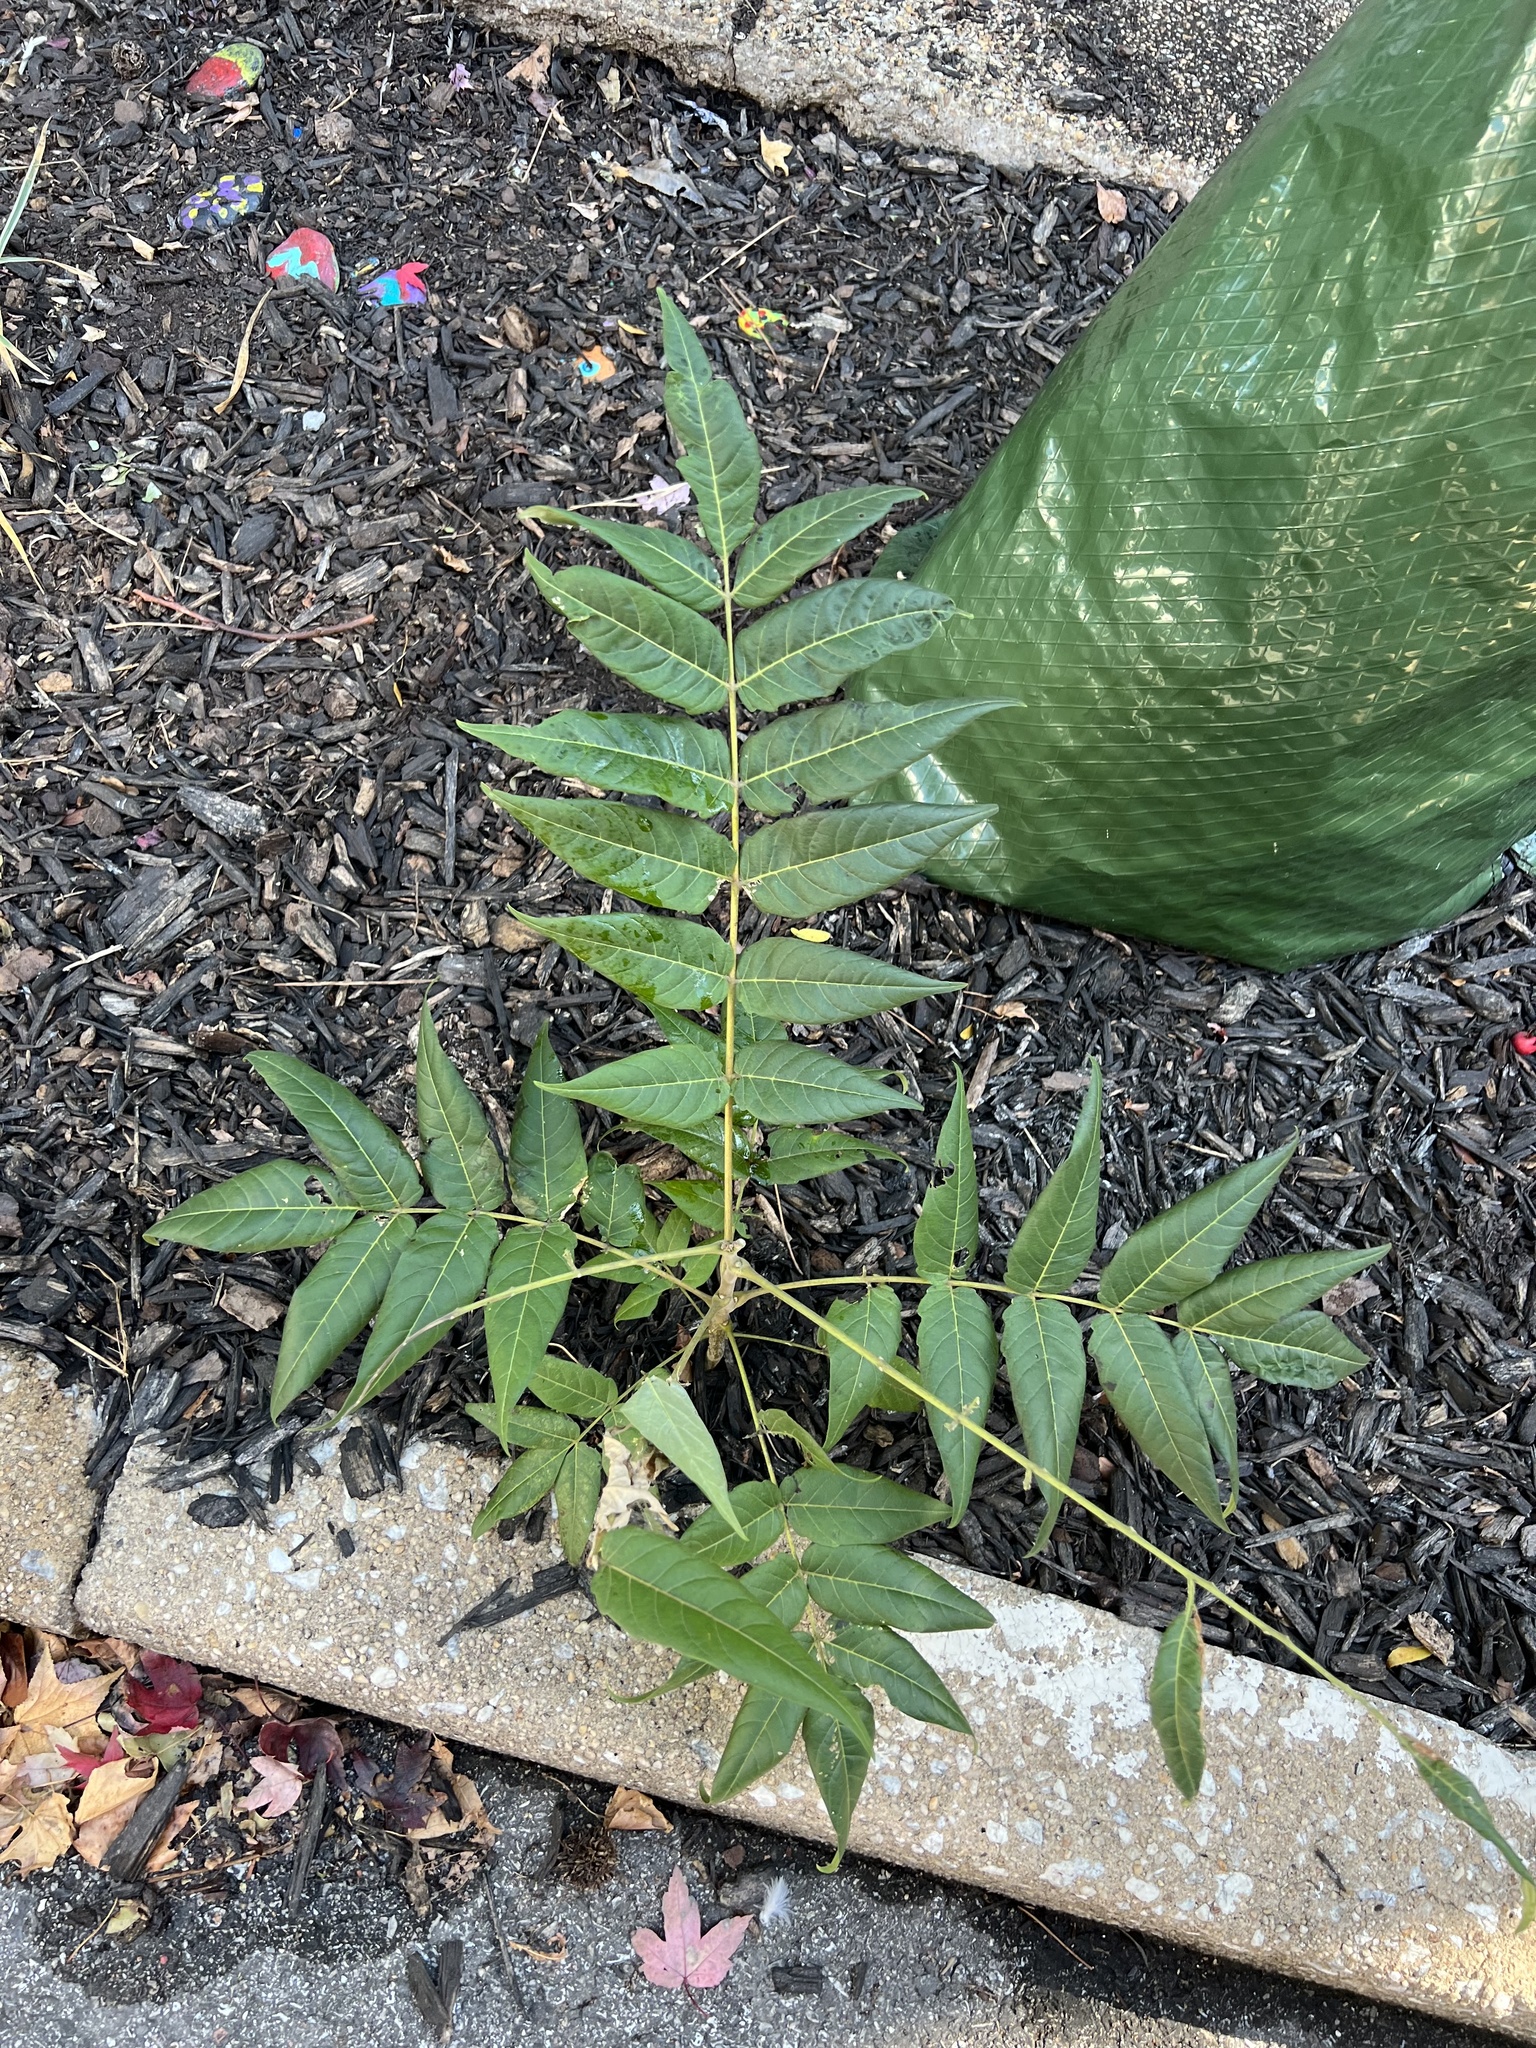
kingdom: Plantae
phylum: Tracheophyta
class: Magnoliopsida
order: Sapindales
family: Simaroubaceae
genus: Ailanthus
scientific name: Ailanthus altissima
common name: Tree-of-heaven
